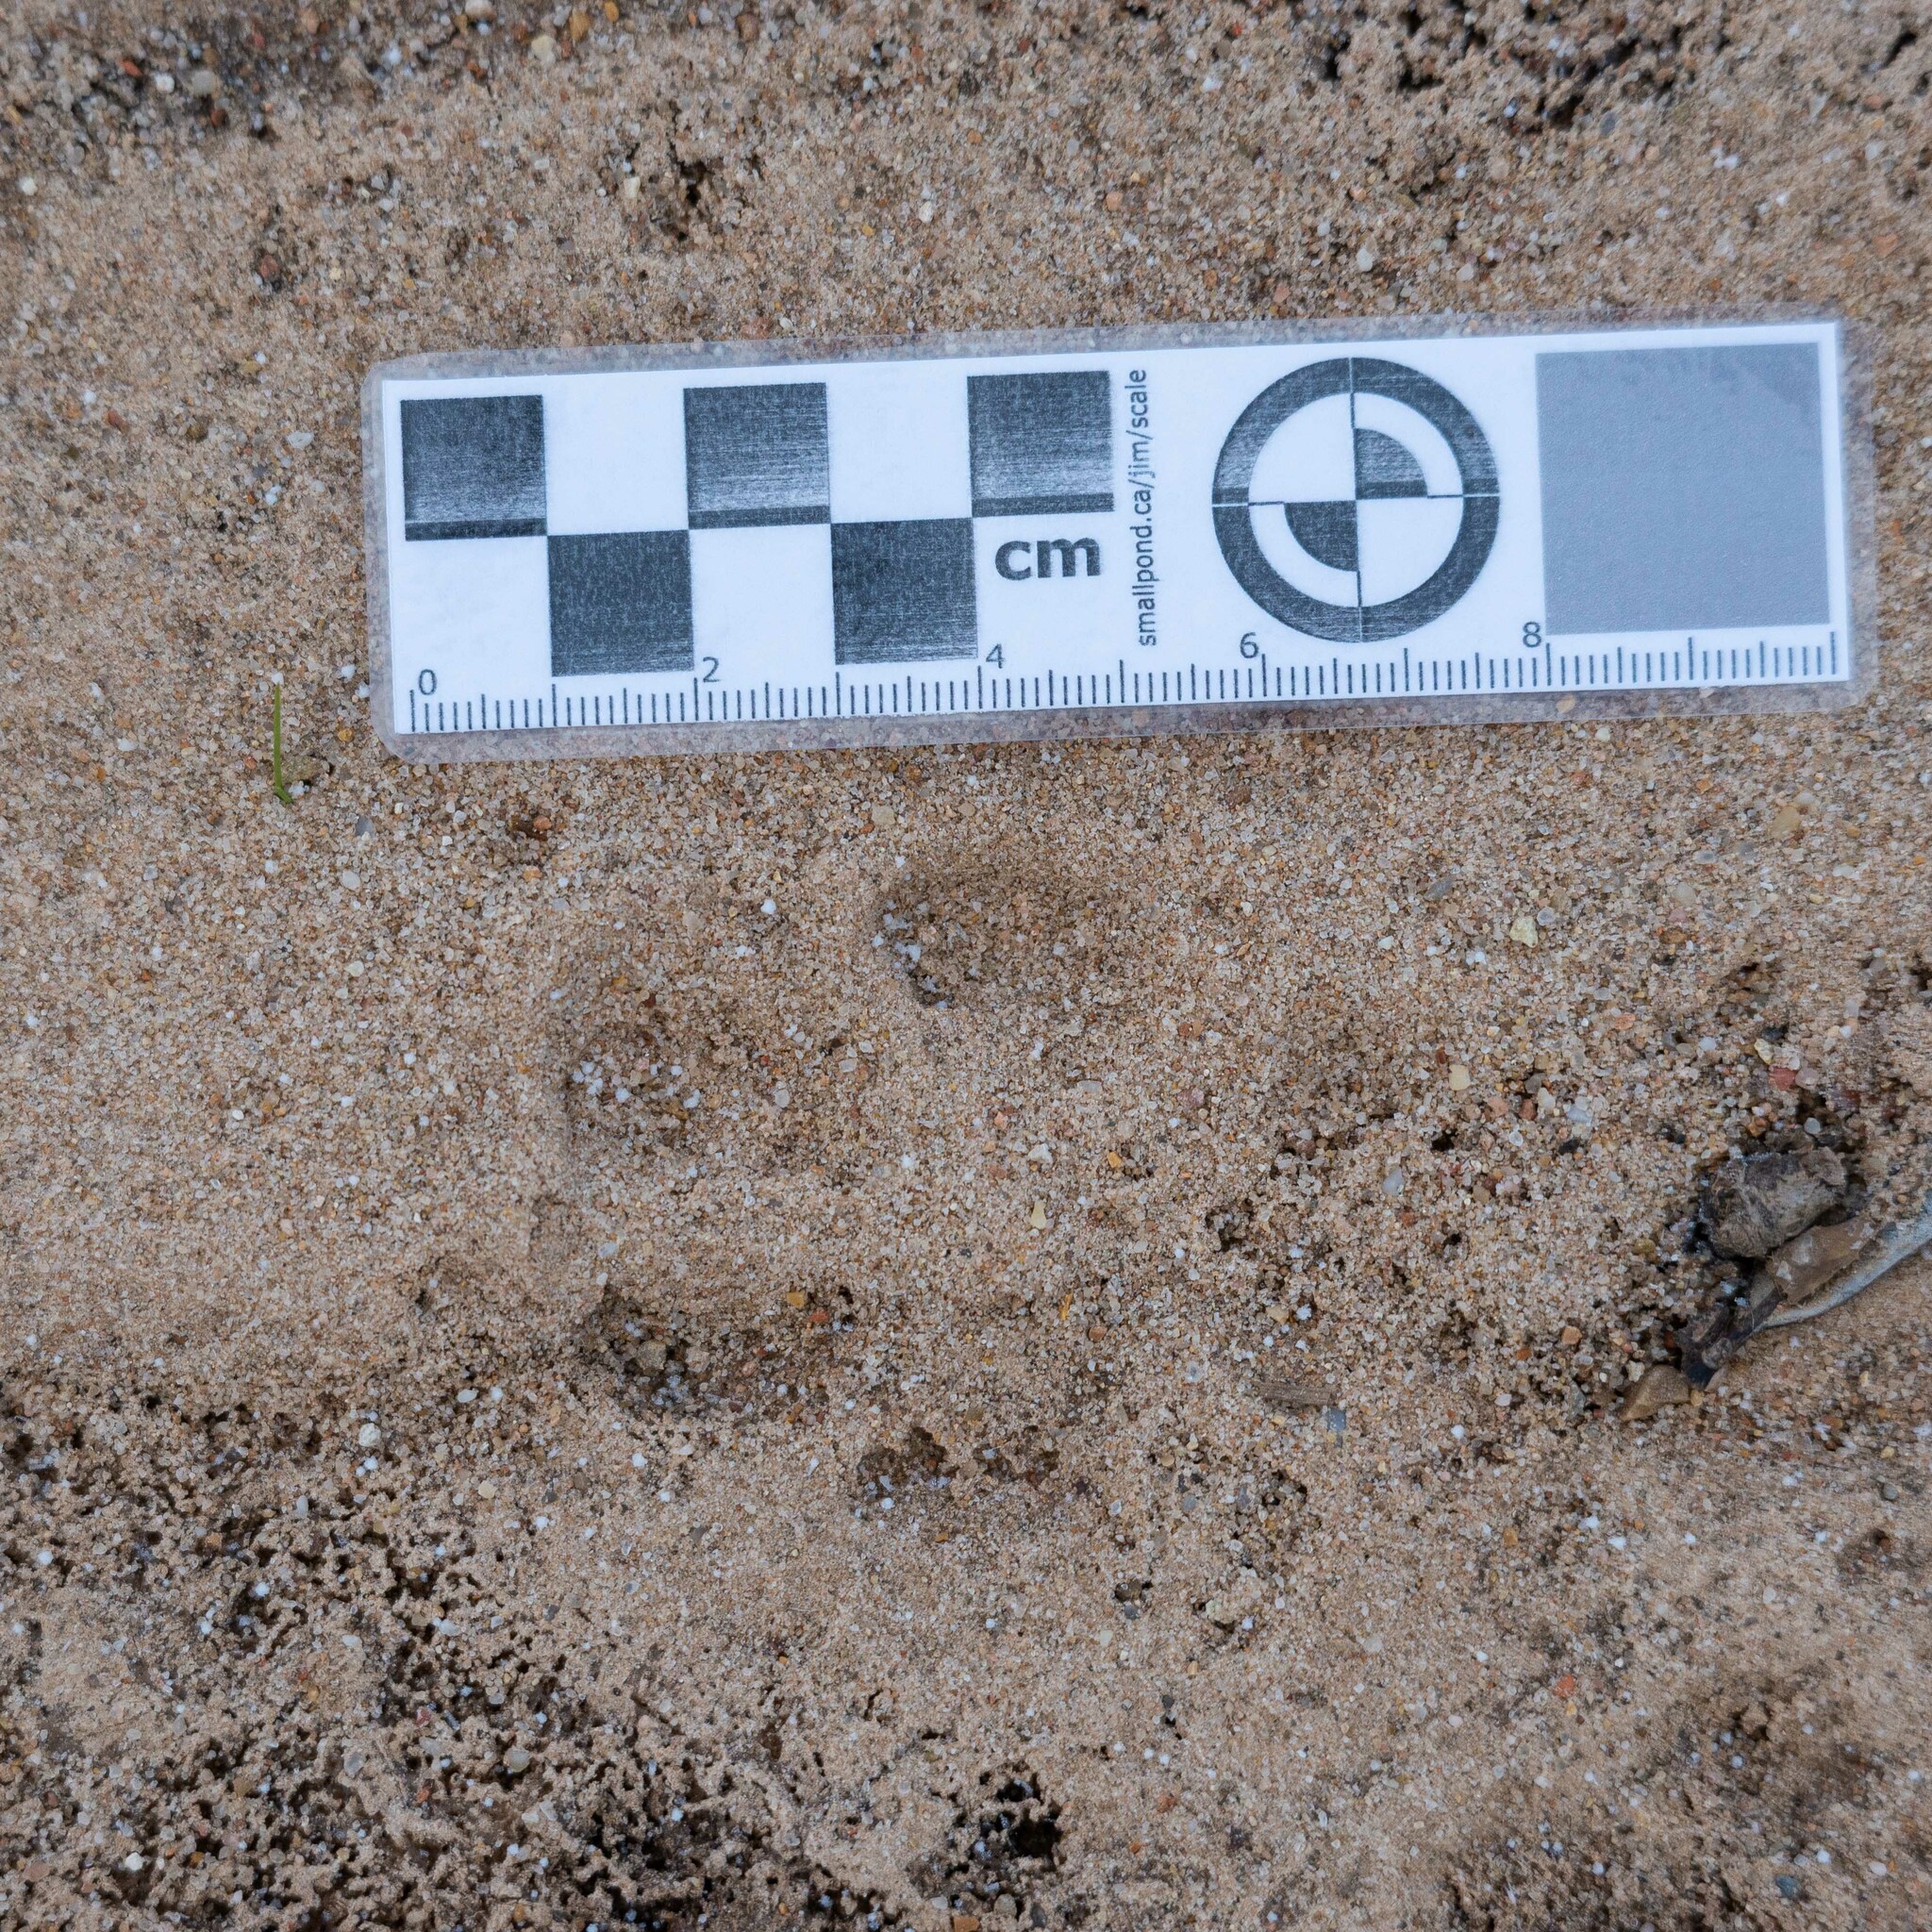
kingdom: Animalia
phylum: Chordata
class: Mammalia
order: Carnivora
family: Canidae
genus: Vulpes
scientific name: Vulpes vulpes
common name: Red fox
